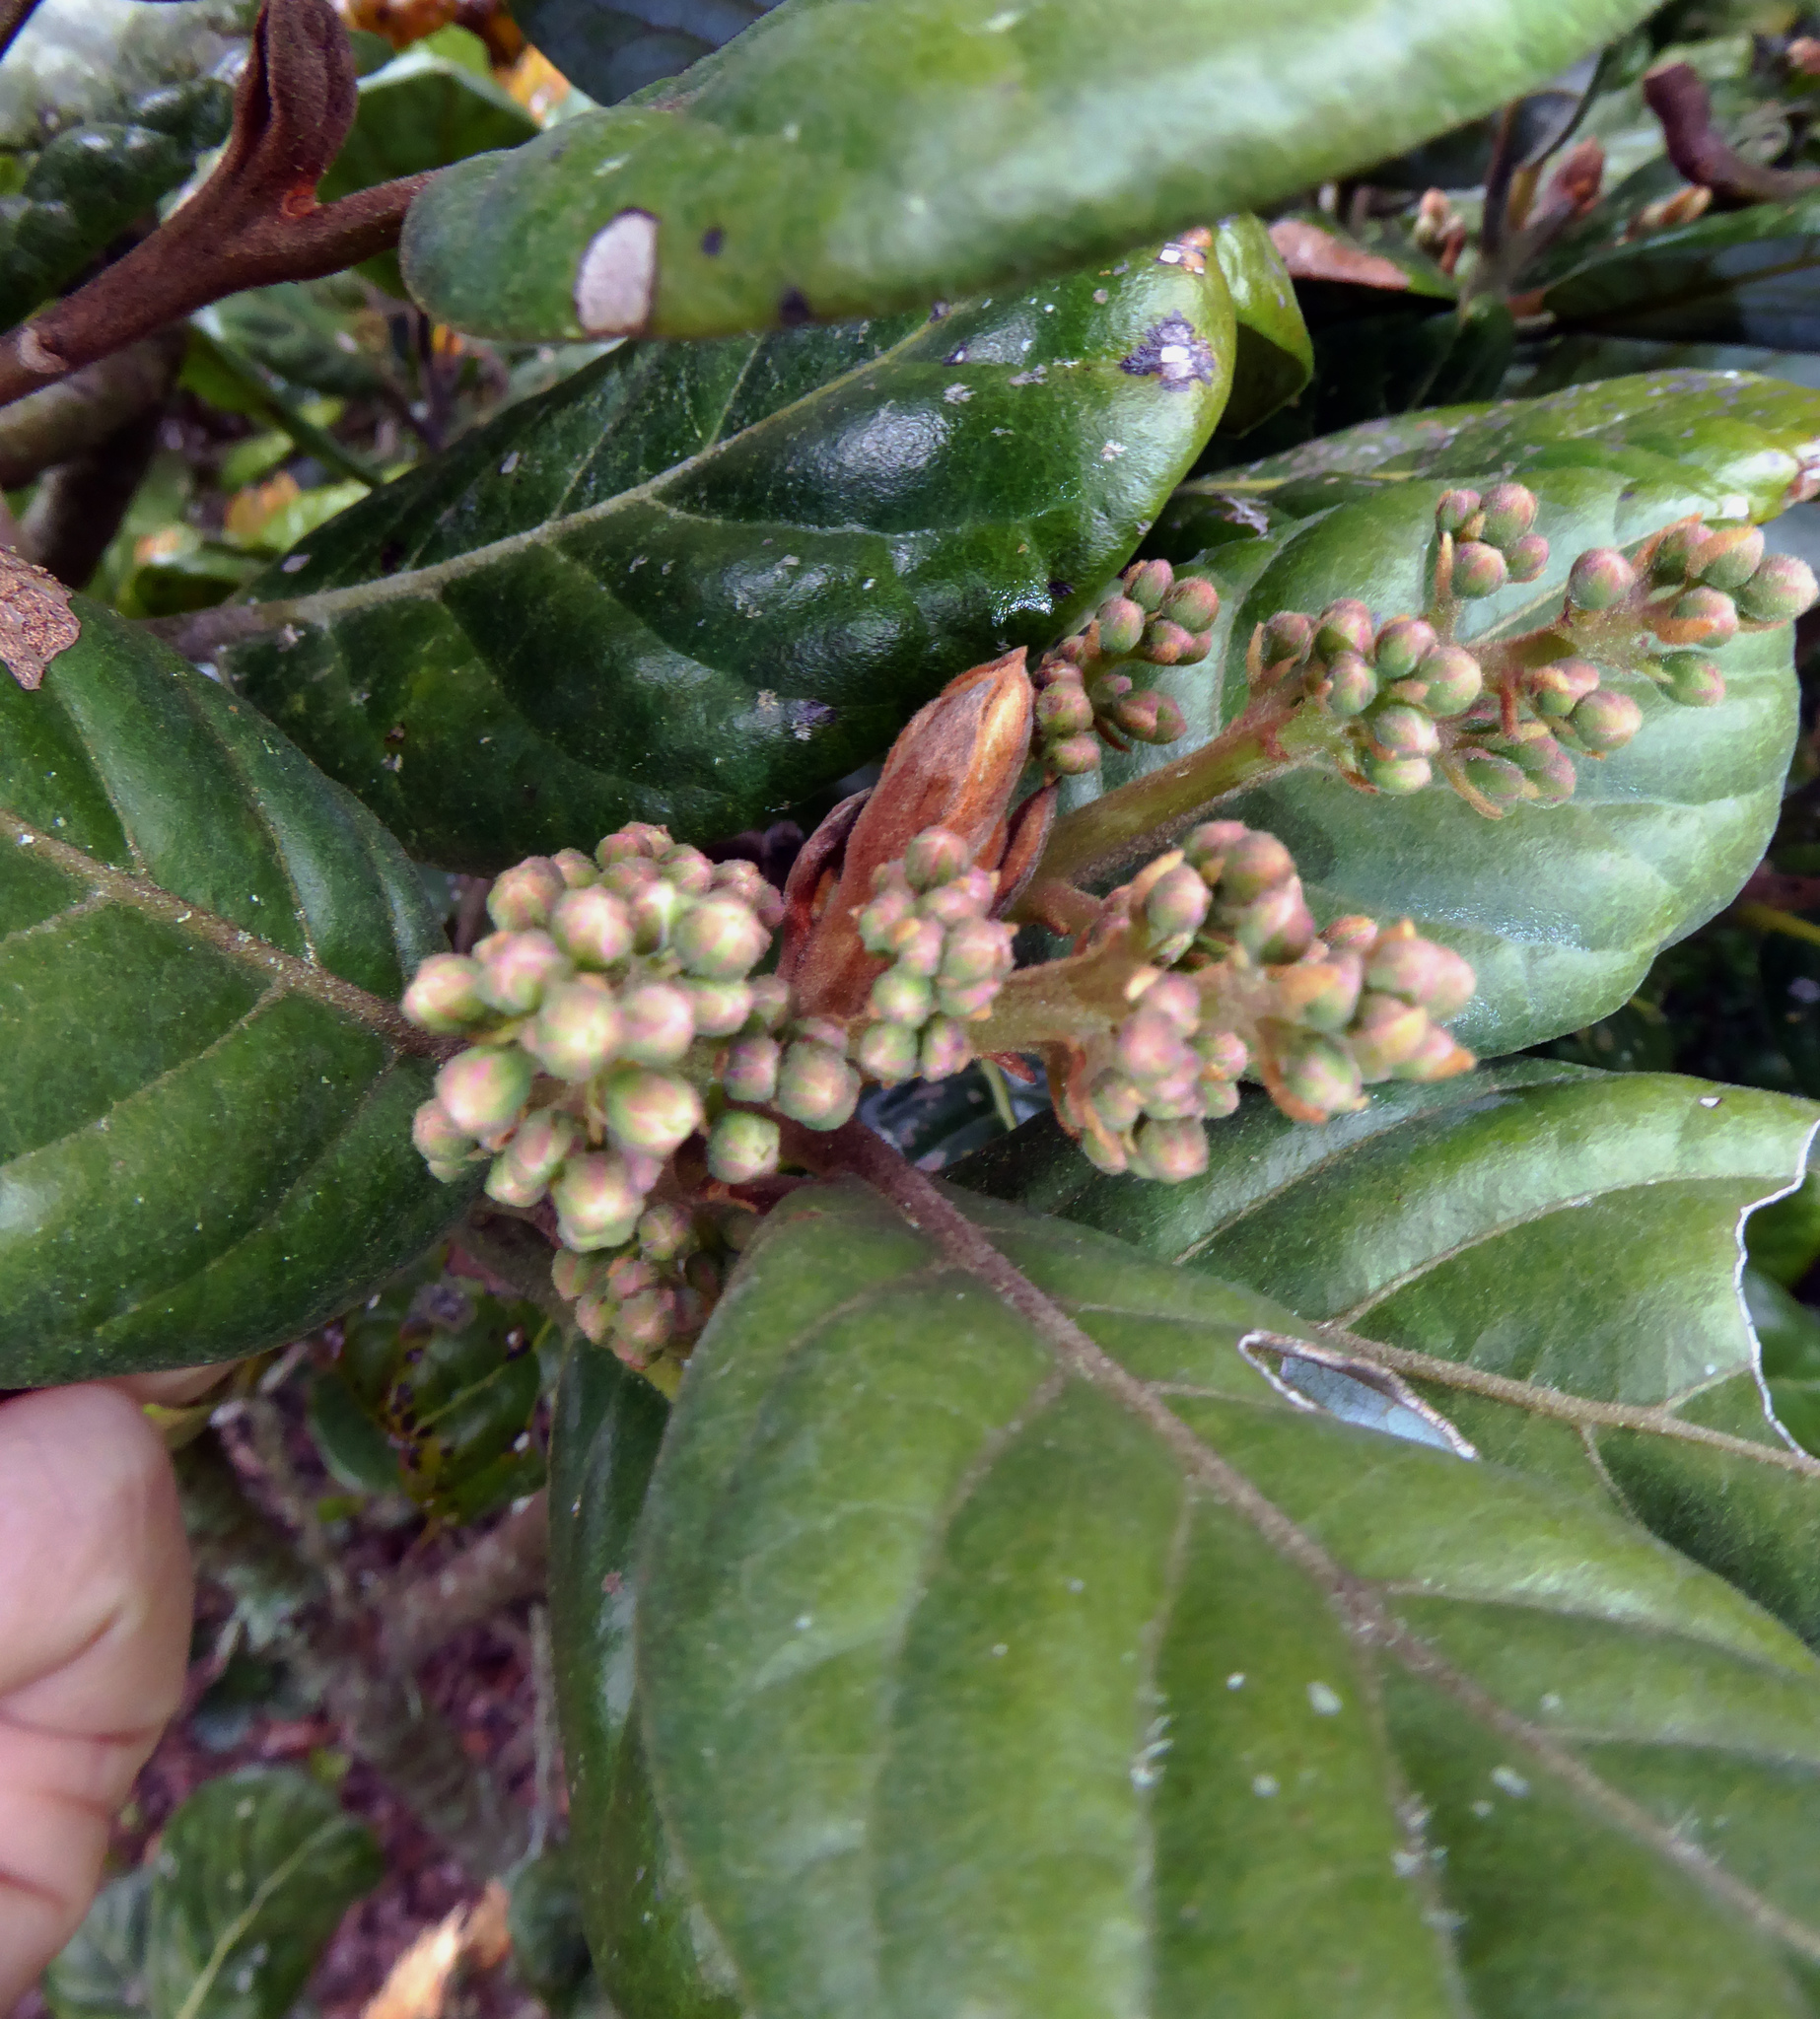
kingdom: Plantae
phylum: Tracheophyta
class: Magnoliopsida
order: Laurales
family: Lauraceae
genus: Beilschmiedia
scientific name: Beilschmiedia tarairi
